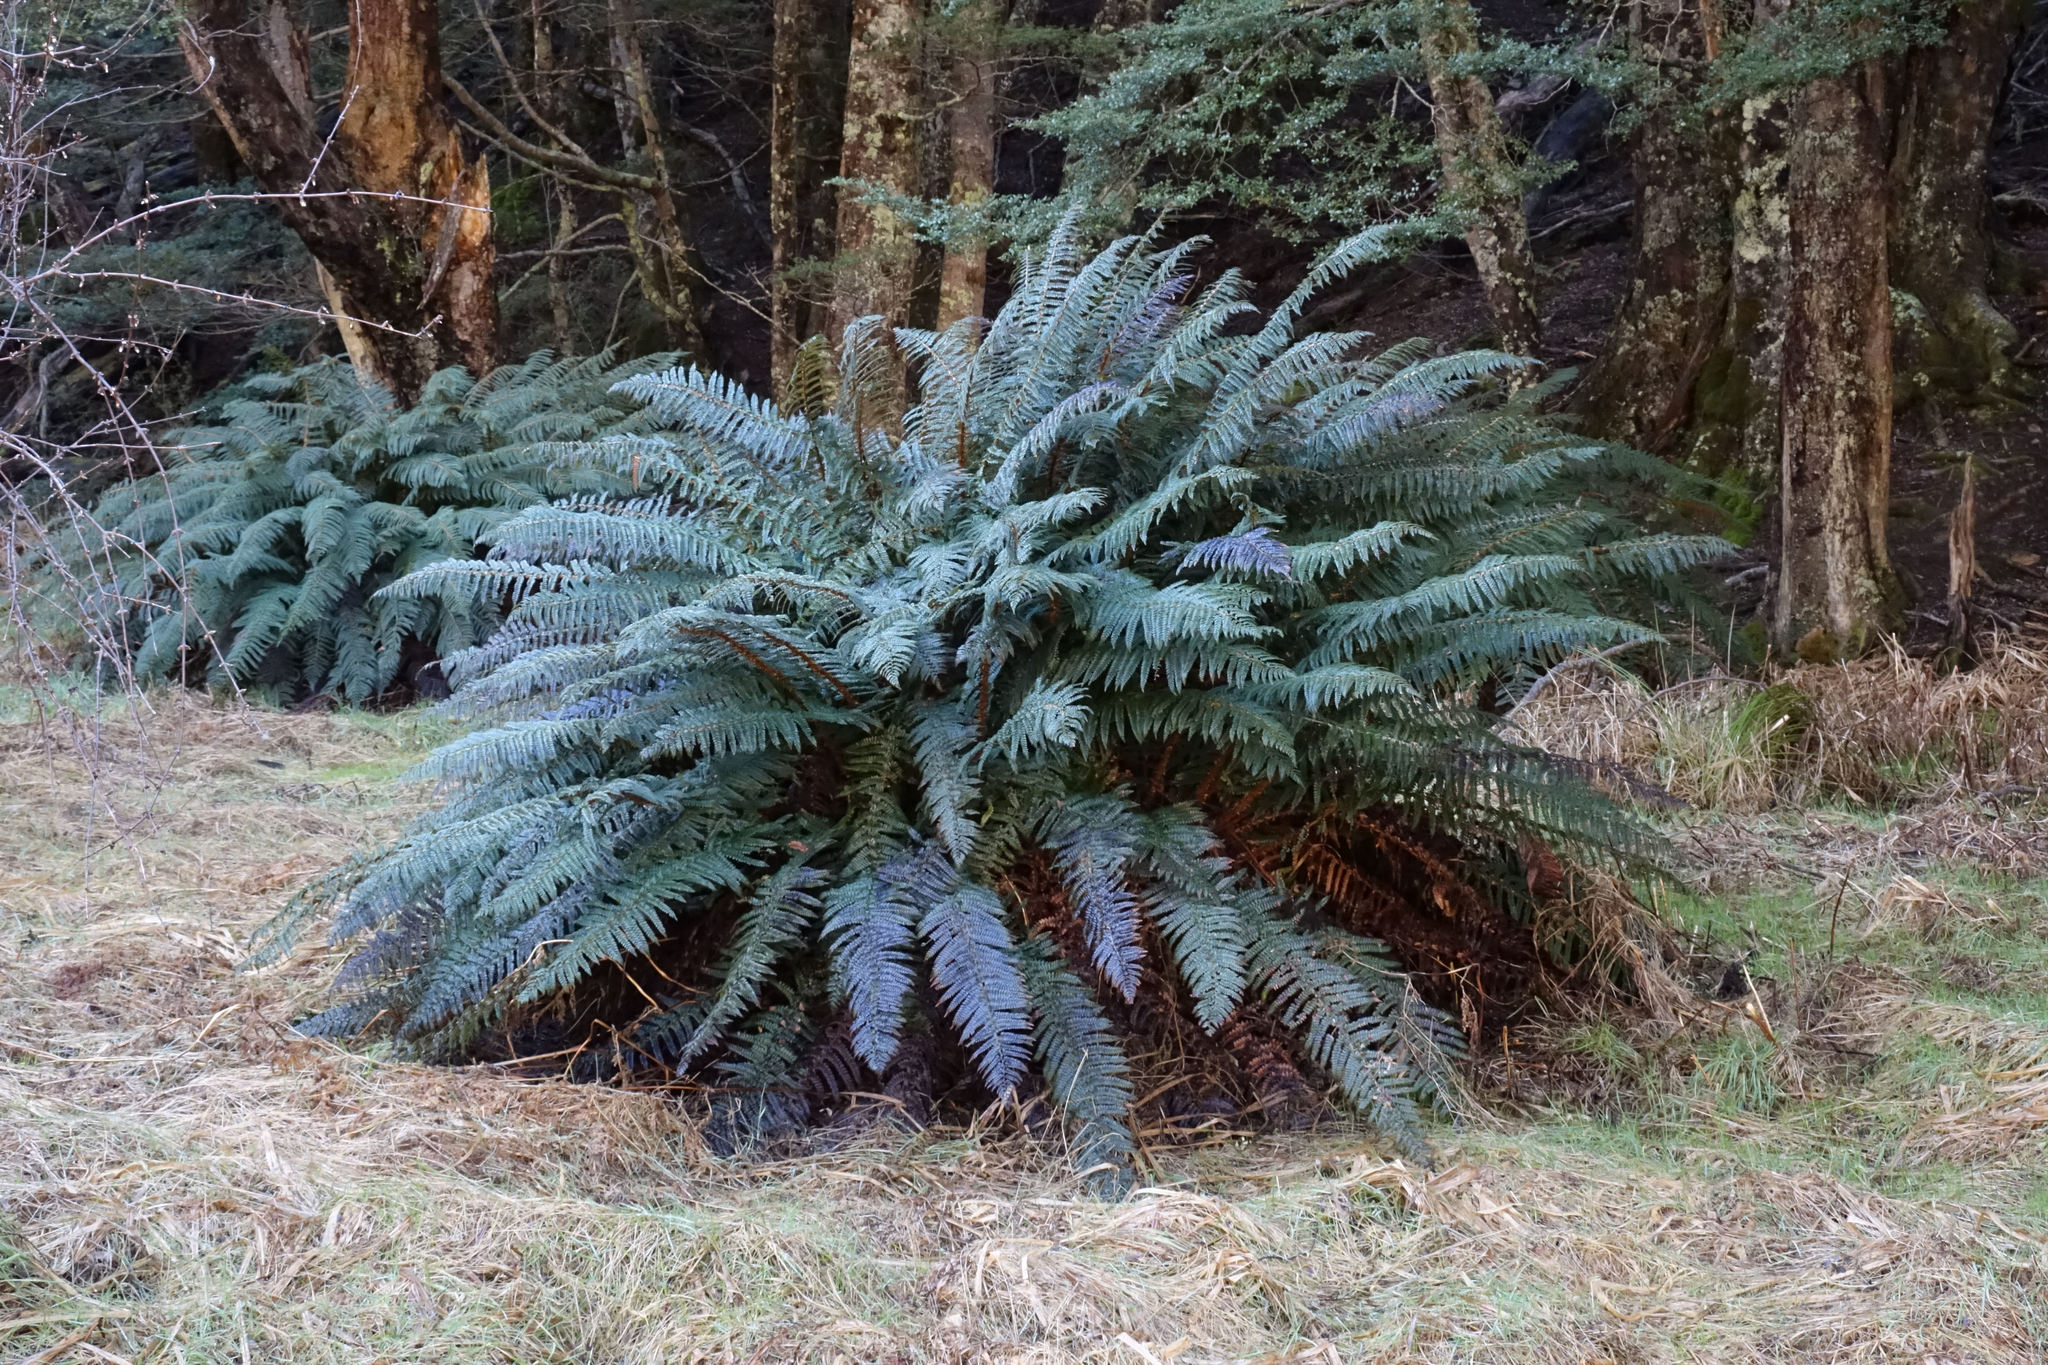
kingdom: Plantae
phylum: Tracheophyta
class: Polypodiopsida
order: Polypodiales
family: Dryopteridaceae
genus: Polystichum
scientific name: Polystichum vestitum
